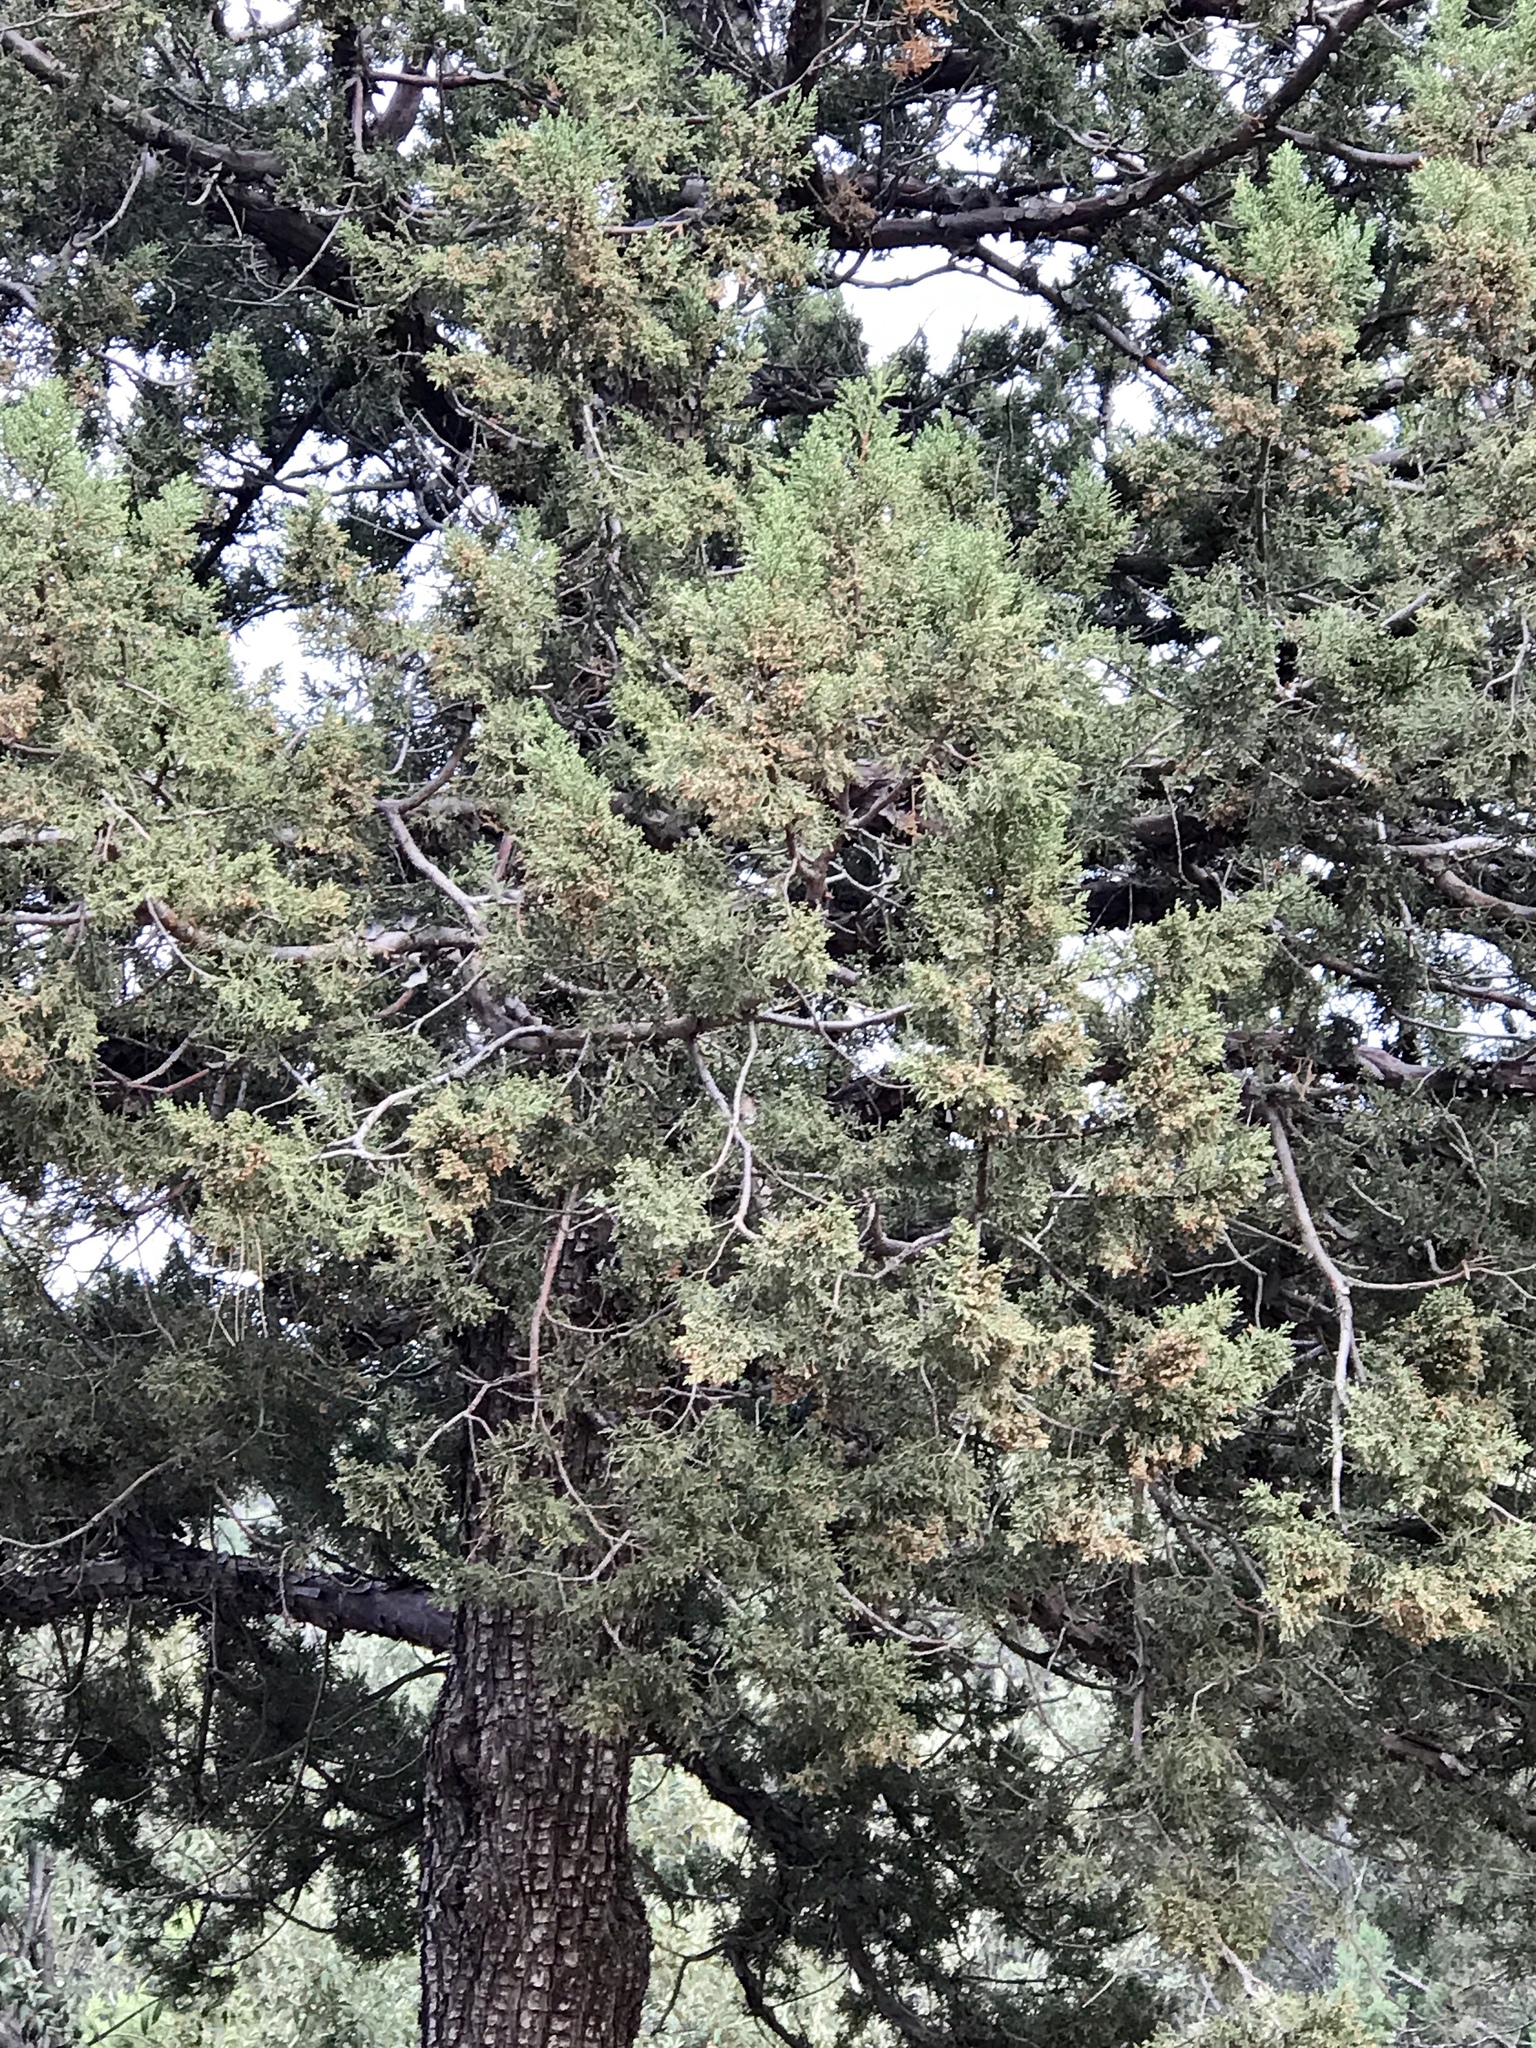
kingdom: Plantae
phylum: Tracheophyta
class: Pinopsida
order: Pinales
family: Cupressaceae
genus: Juniperus
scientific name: Juniperus deppeana
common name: Alligator juniper
